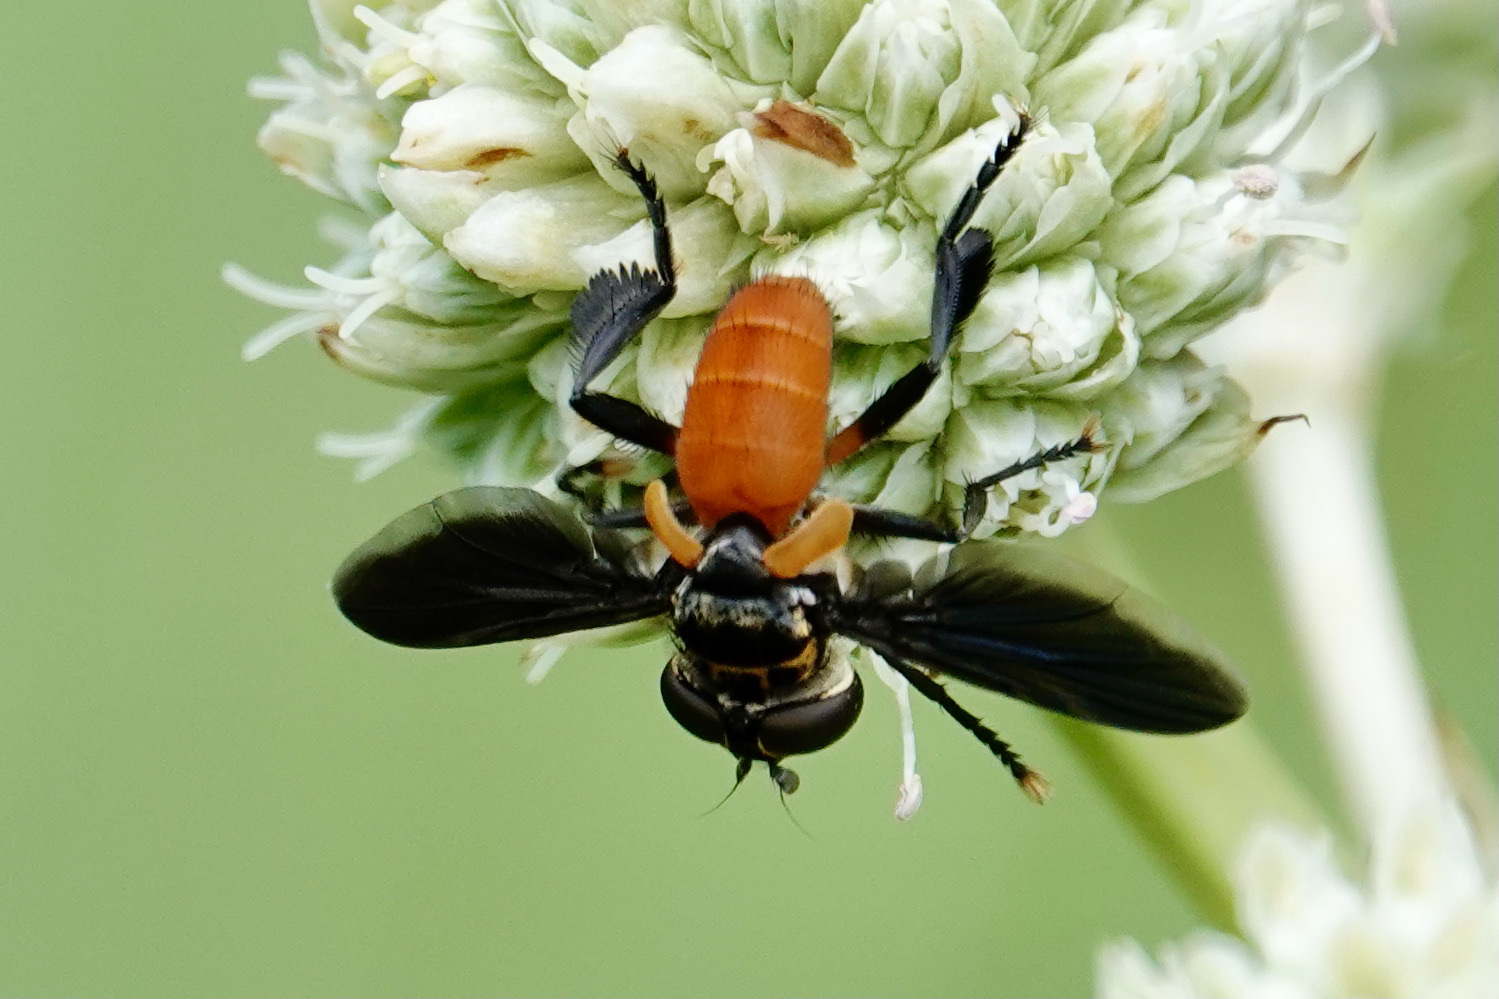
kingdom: Animalia
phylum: Arthropoda
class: Insecta
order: Diptera
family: Tachinidae
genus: Trichopoda
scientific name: Trichopoda pennipes
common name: Tachinid fly
